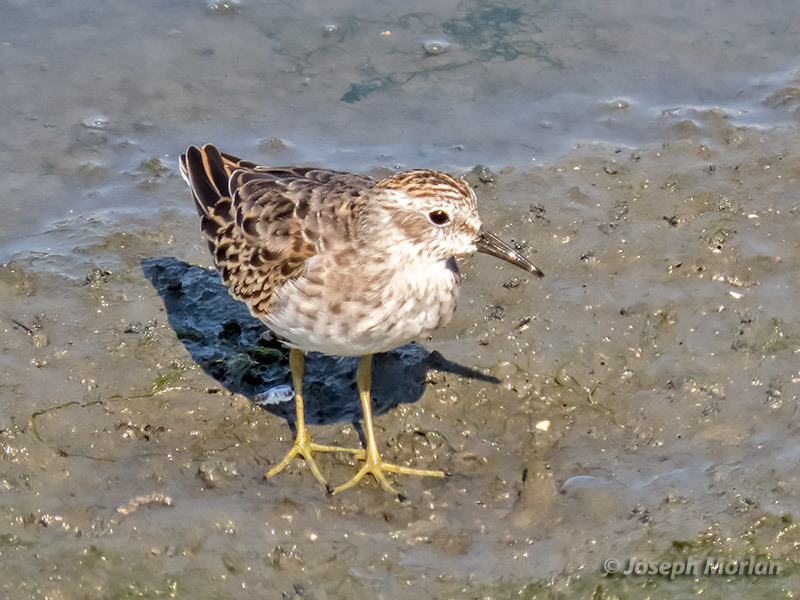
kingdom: Animalia
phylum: Chordata
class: Aves
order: Charadriiformes
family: Scolopacidae
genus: Calidris
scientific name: Calidris minutilla
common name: Least sandpiper
